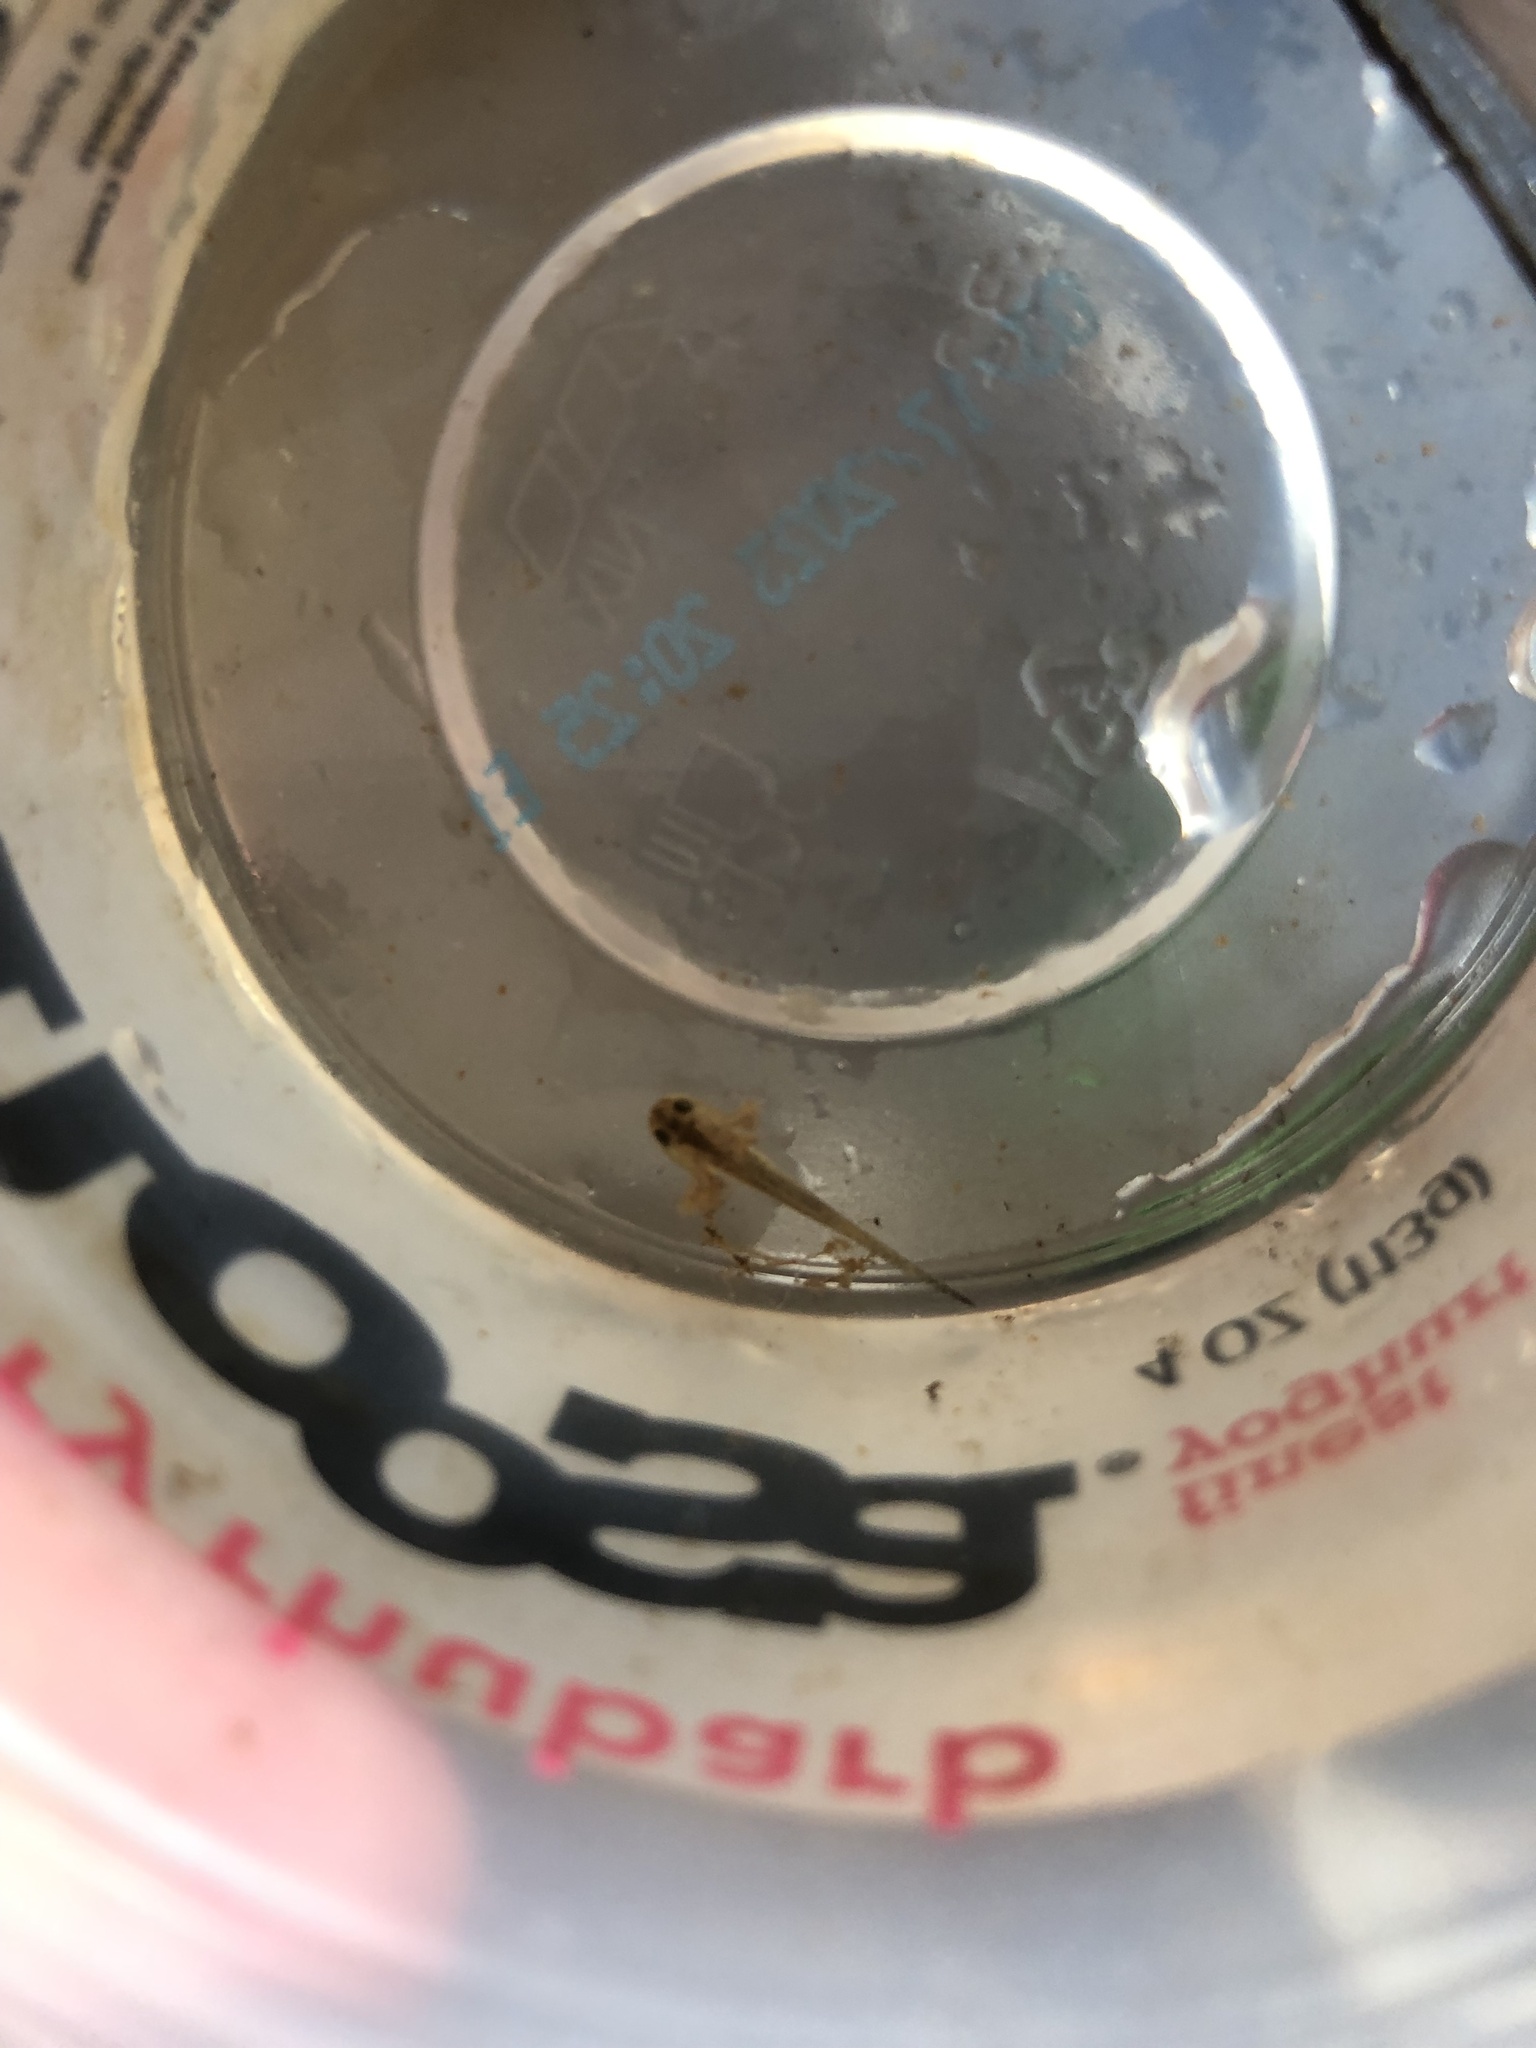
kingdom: Animalia
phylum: Chordata
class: Amphibia
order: Caudata
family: Ambystomatidae
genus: Ambystoma
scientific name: Ambystoma maculatum
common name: Spotted salamander
